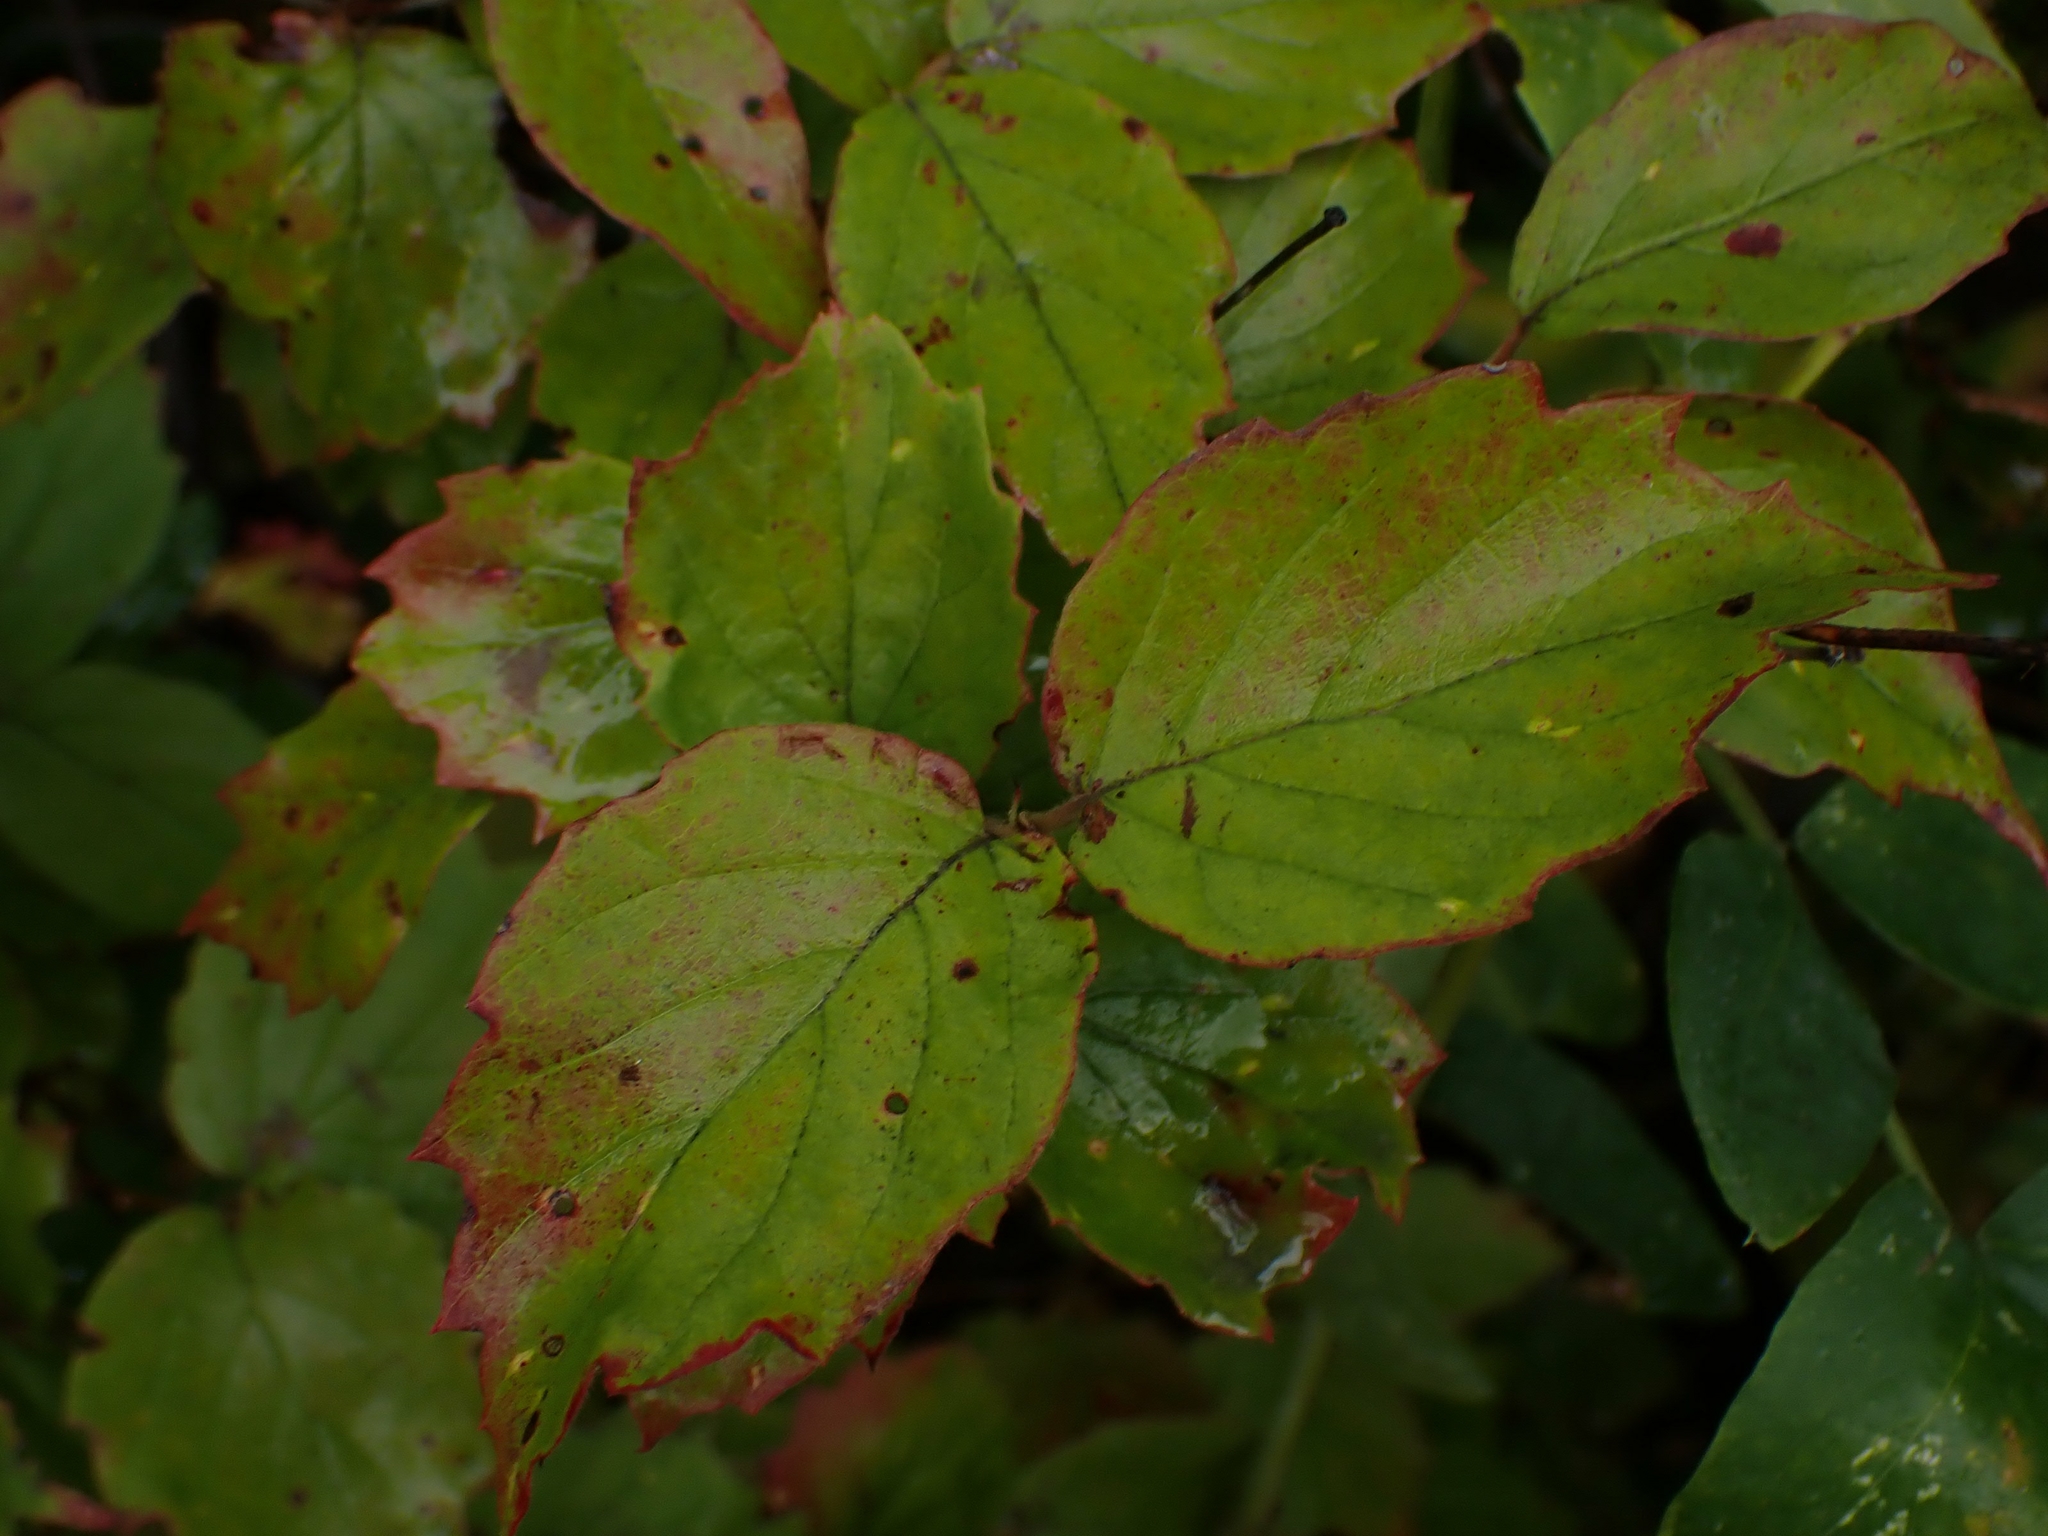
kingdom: Plantae
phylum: Tracheophyta
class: Magnoliopsida
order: Dipsacales
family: Viburnaceae
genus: Viburnum
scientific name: Viburnum rafinesqueanum
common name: Downy arrow-wood
